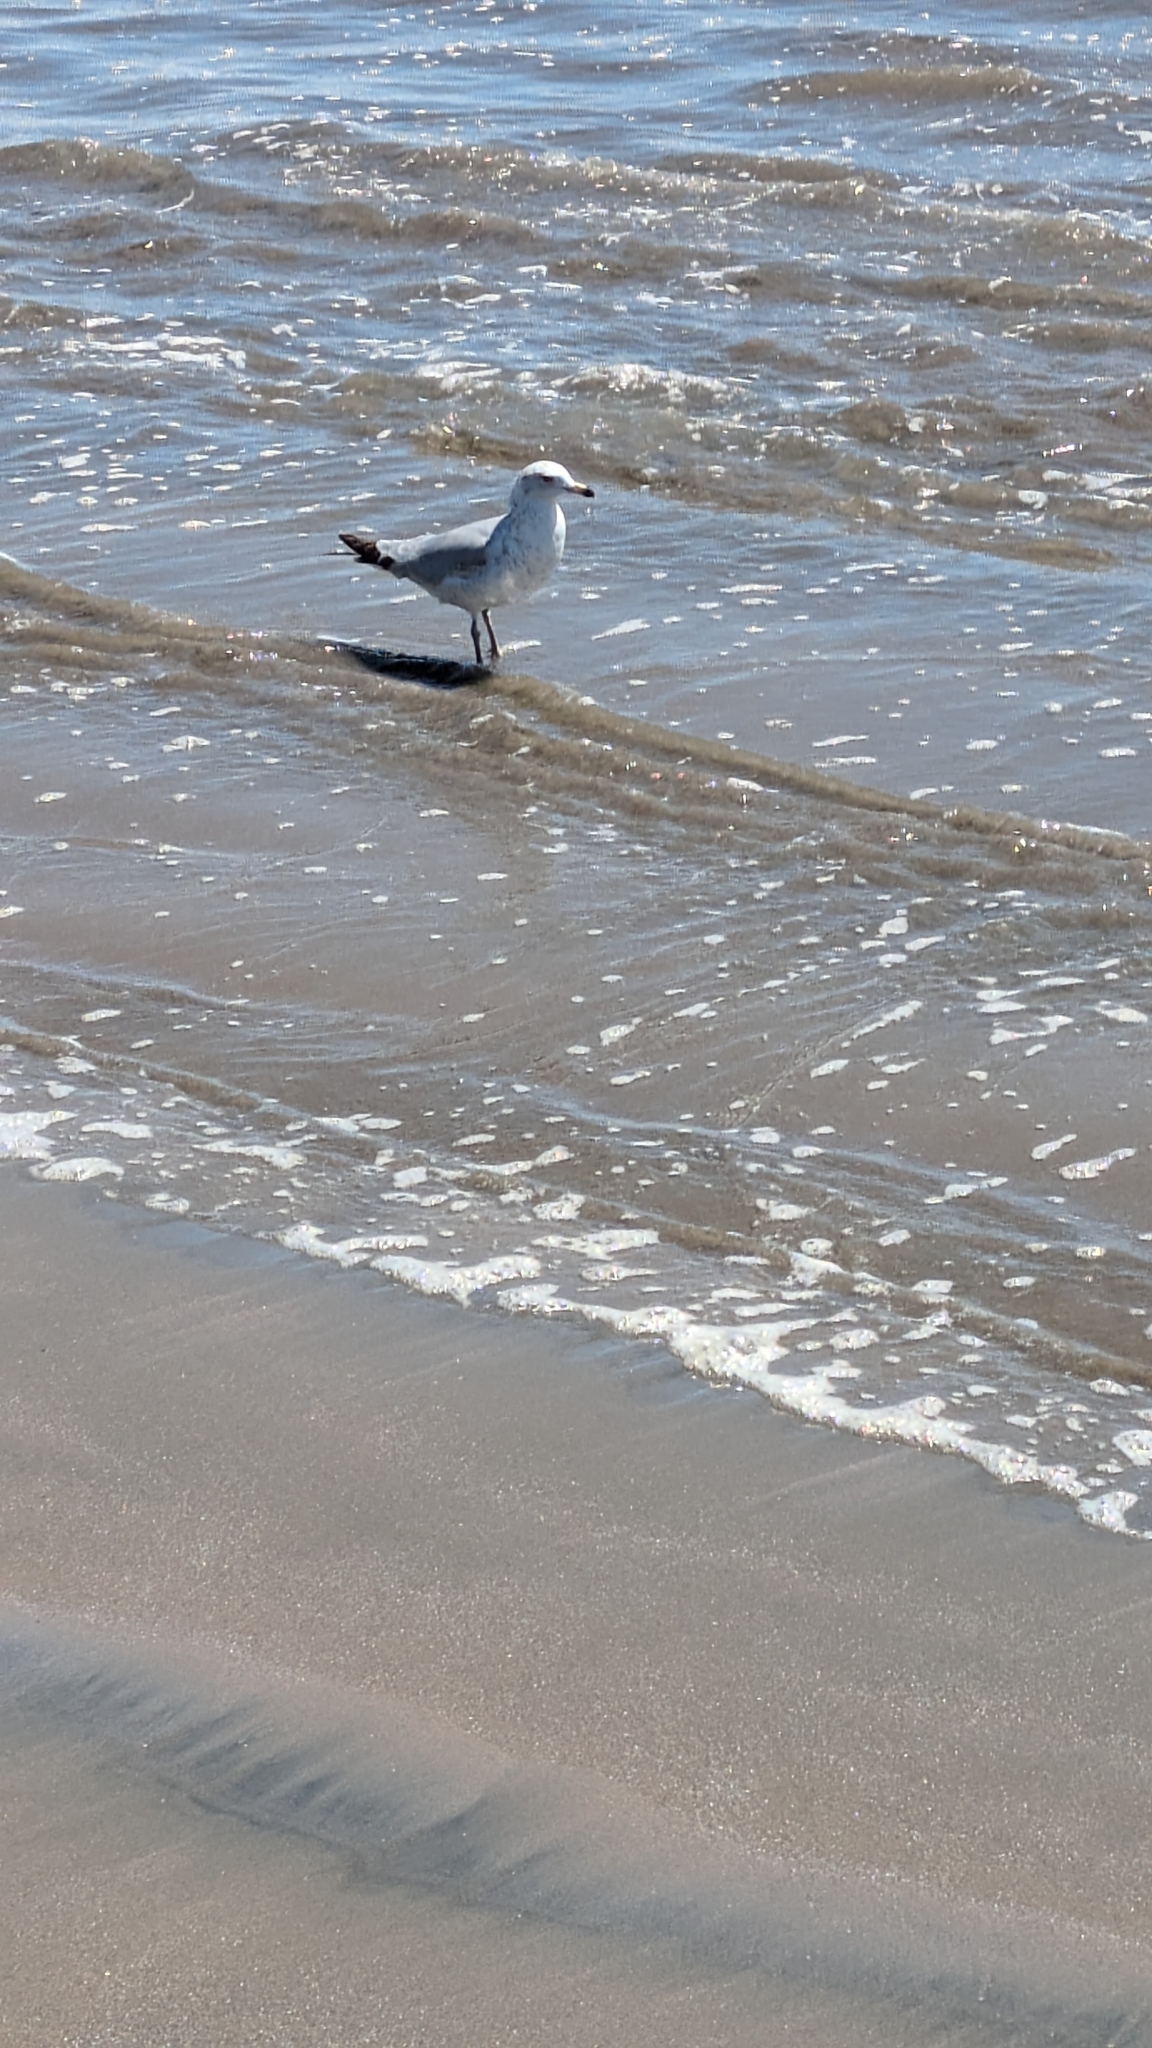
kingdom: Animalia
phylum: Chordata
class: Aves
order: Charadriiformes
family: Laridae
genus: Larus
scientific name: Larus delawarensis
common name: Ring-billed gull
